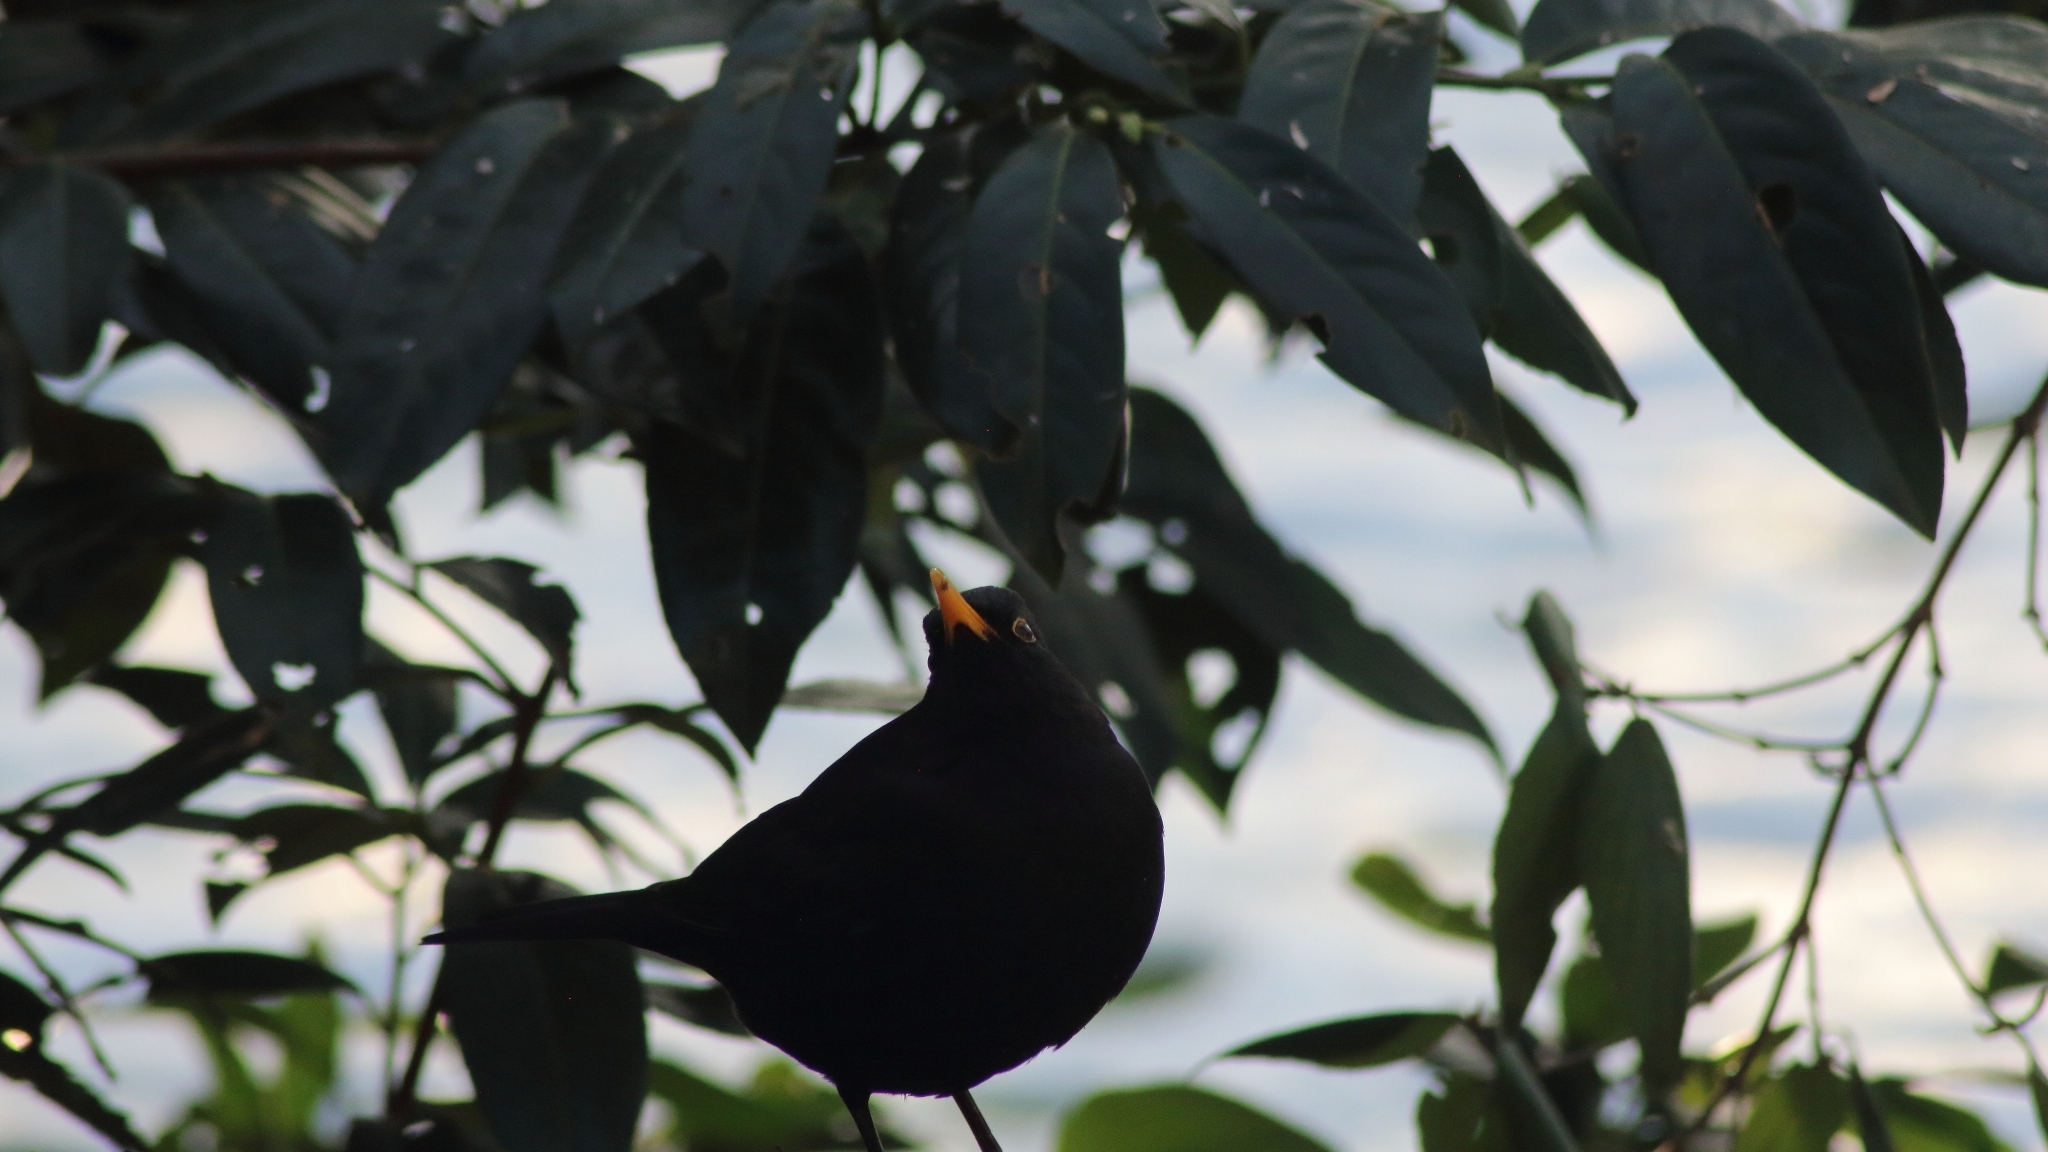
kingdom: Animalia
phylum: Chordata
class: Aves
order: Passeriformes
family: Turdidae
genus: Turdus
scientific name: Turdus merula
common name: Common blackbird
